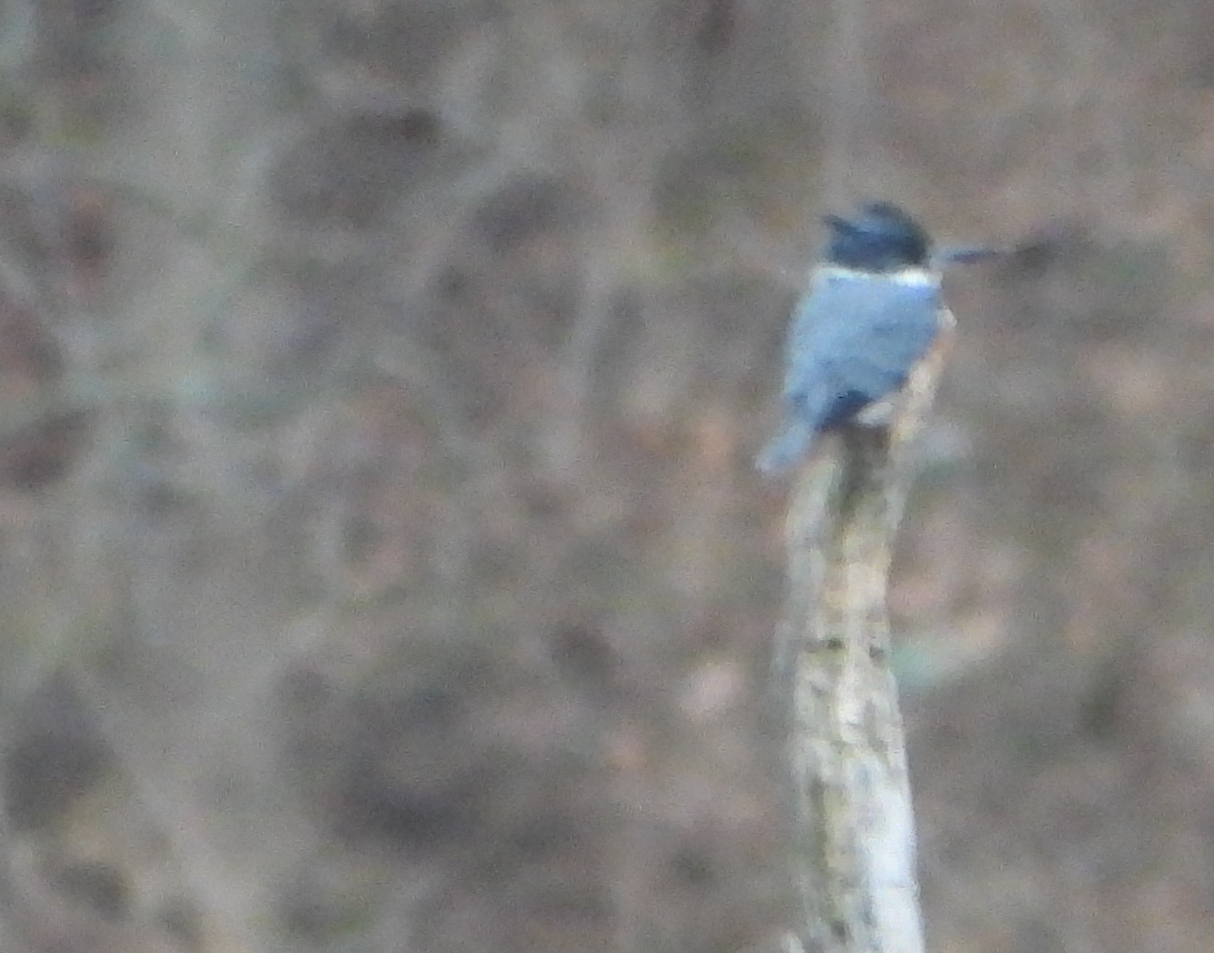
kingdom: Animalia
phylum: Chordata
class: Aves
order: Coraciiformes
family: Alcedinidae
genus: Megaceryle
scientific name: Megaceryle alcyon
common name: Belted kingfisher
